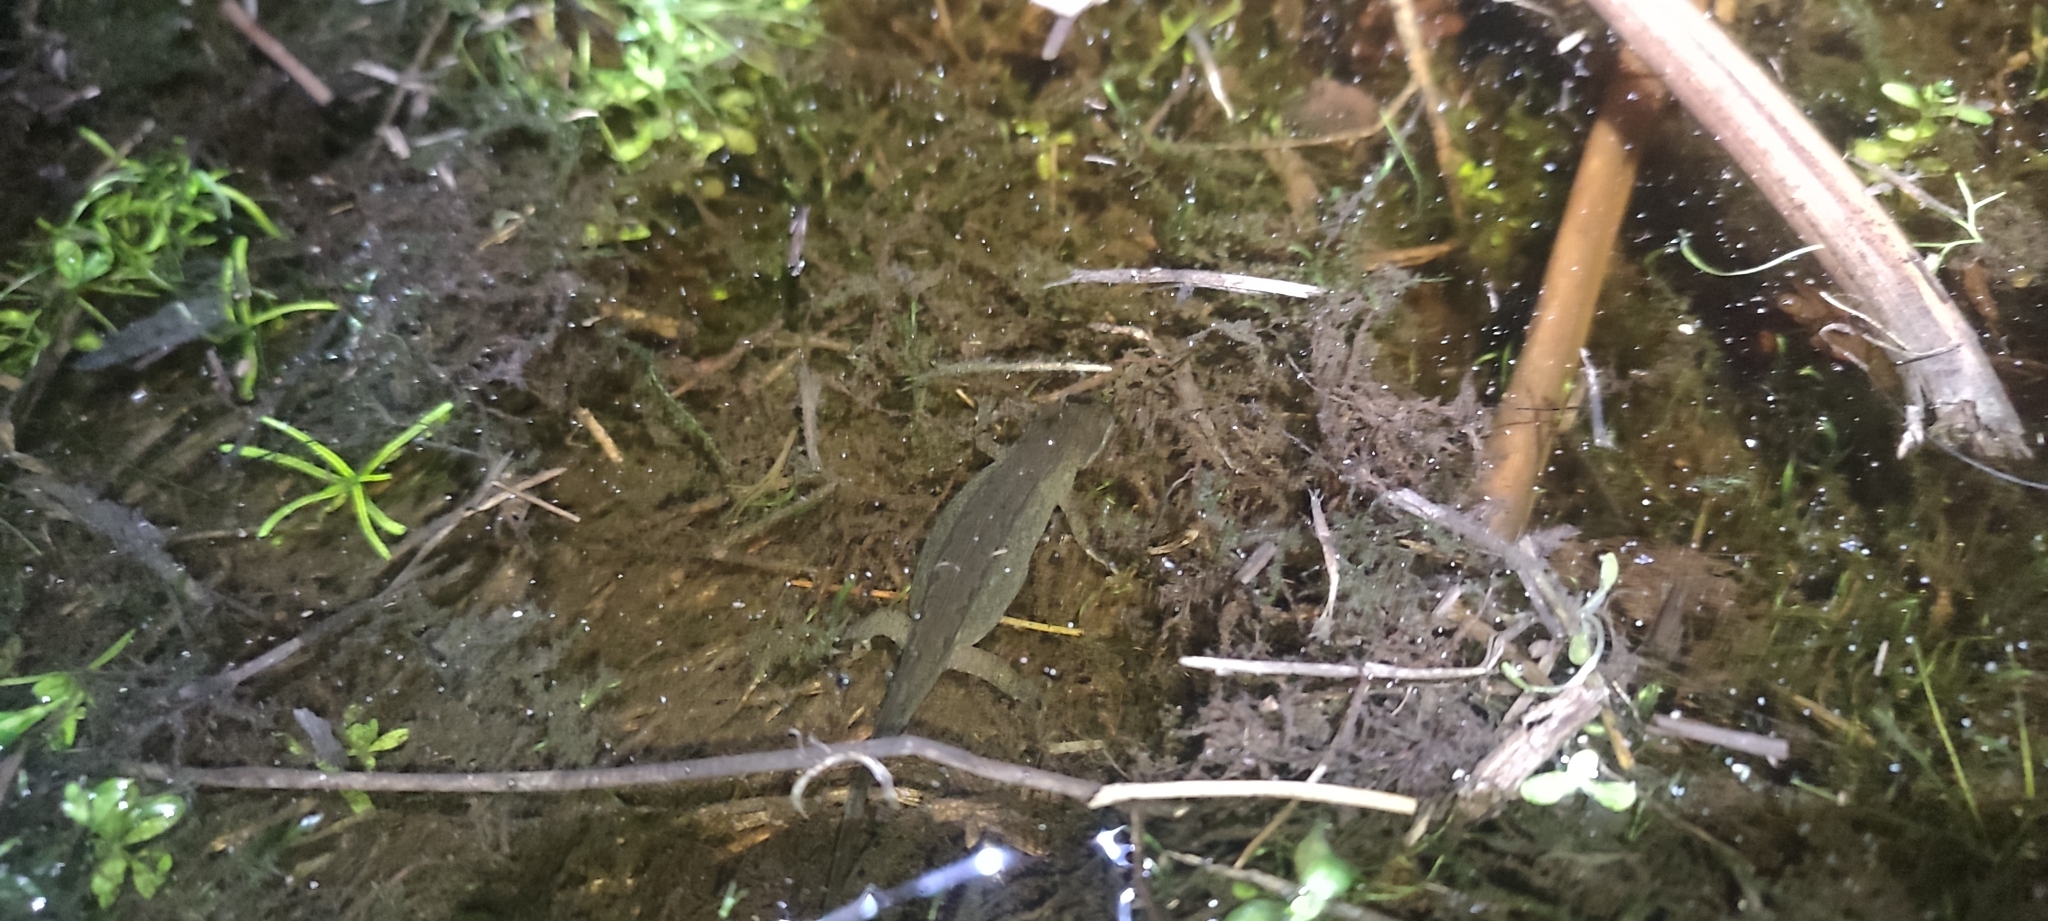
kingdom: Animalia
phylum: Chordata
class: Amphibia
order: Caudata
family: Salamandridae
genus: Lissotriton
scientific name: Lissotriton helveticus
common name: Palmate newt
